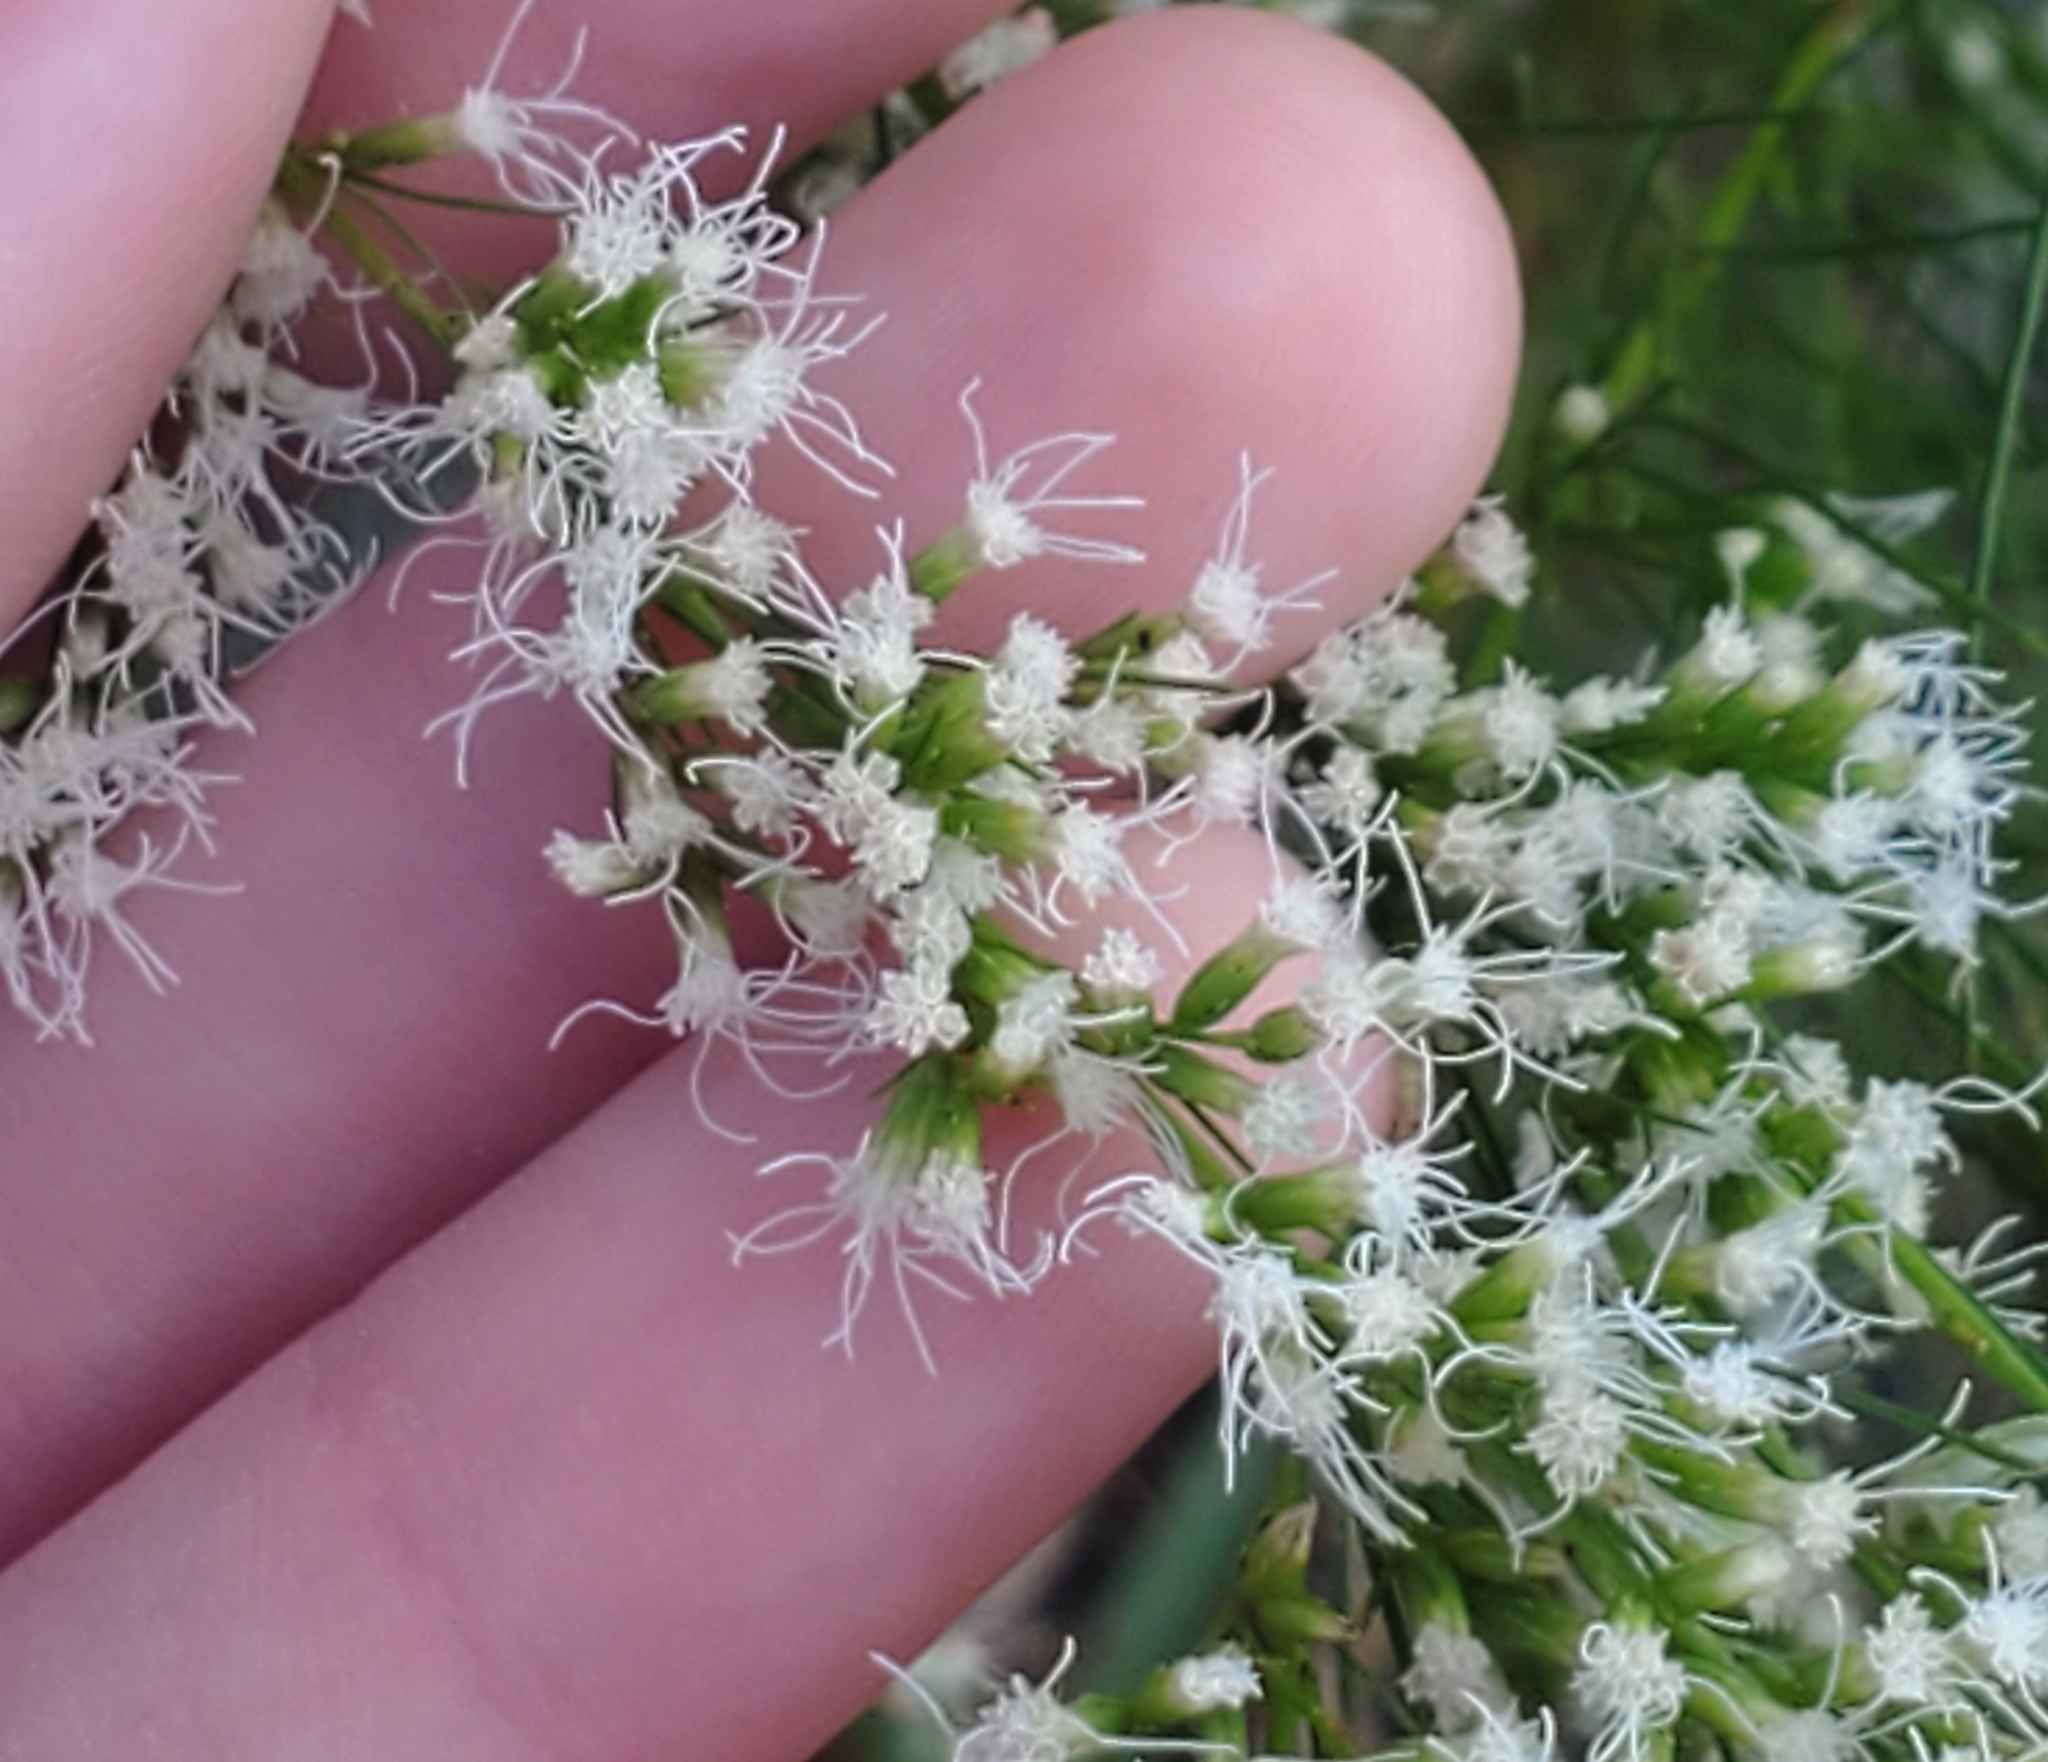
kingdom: Plantae
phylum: Tracheophyta
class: Magnoliopsida
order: Asterales
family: Asteraceae
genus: Eupatorium
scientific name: Eupatorium leptophyllum
